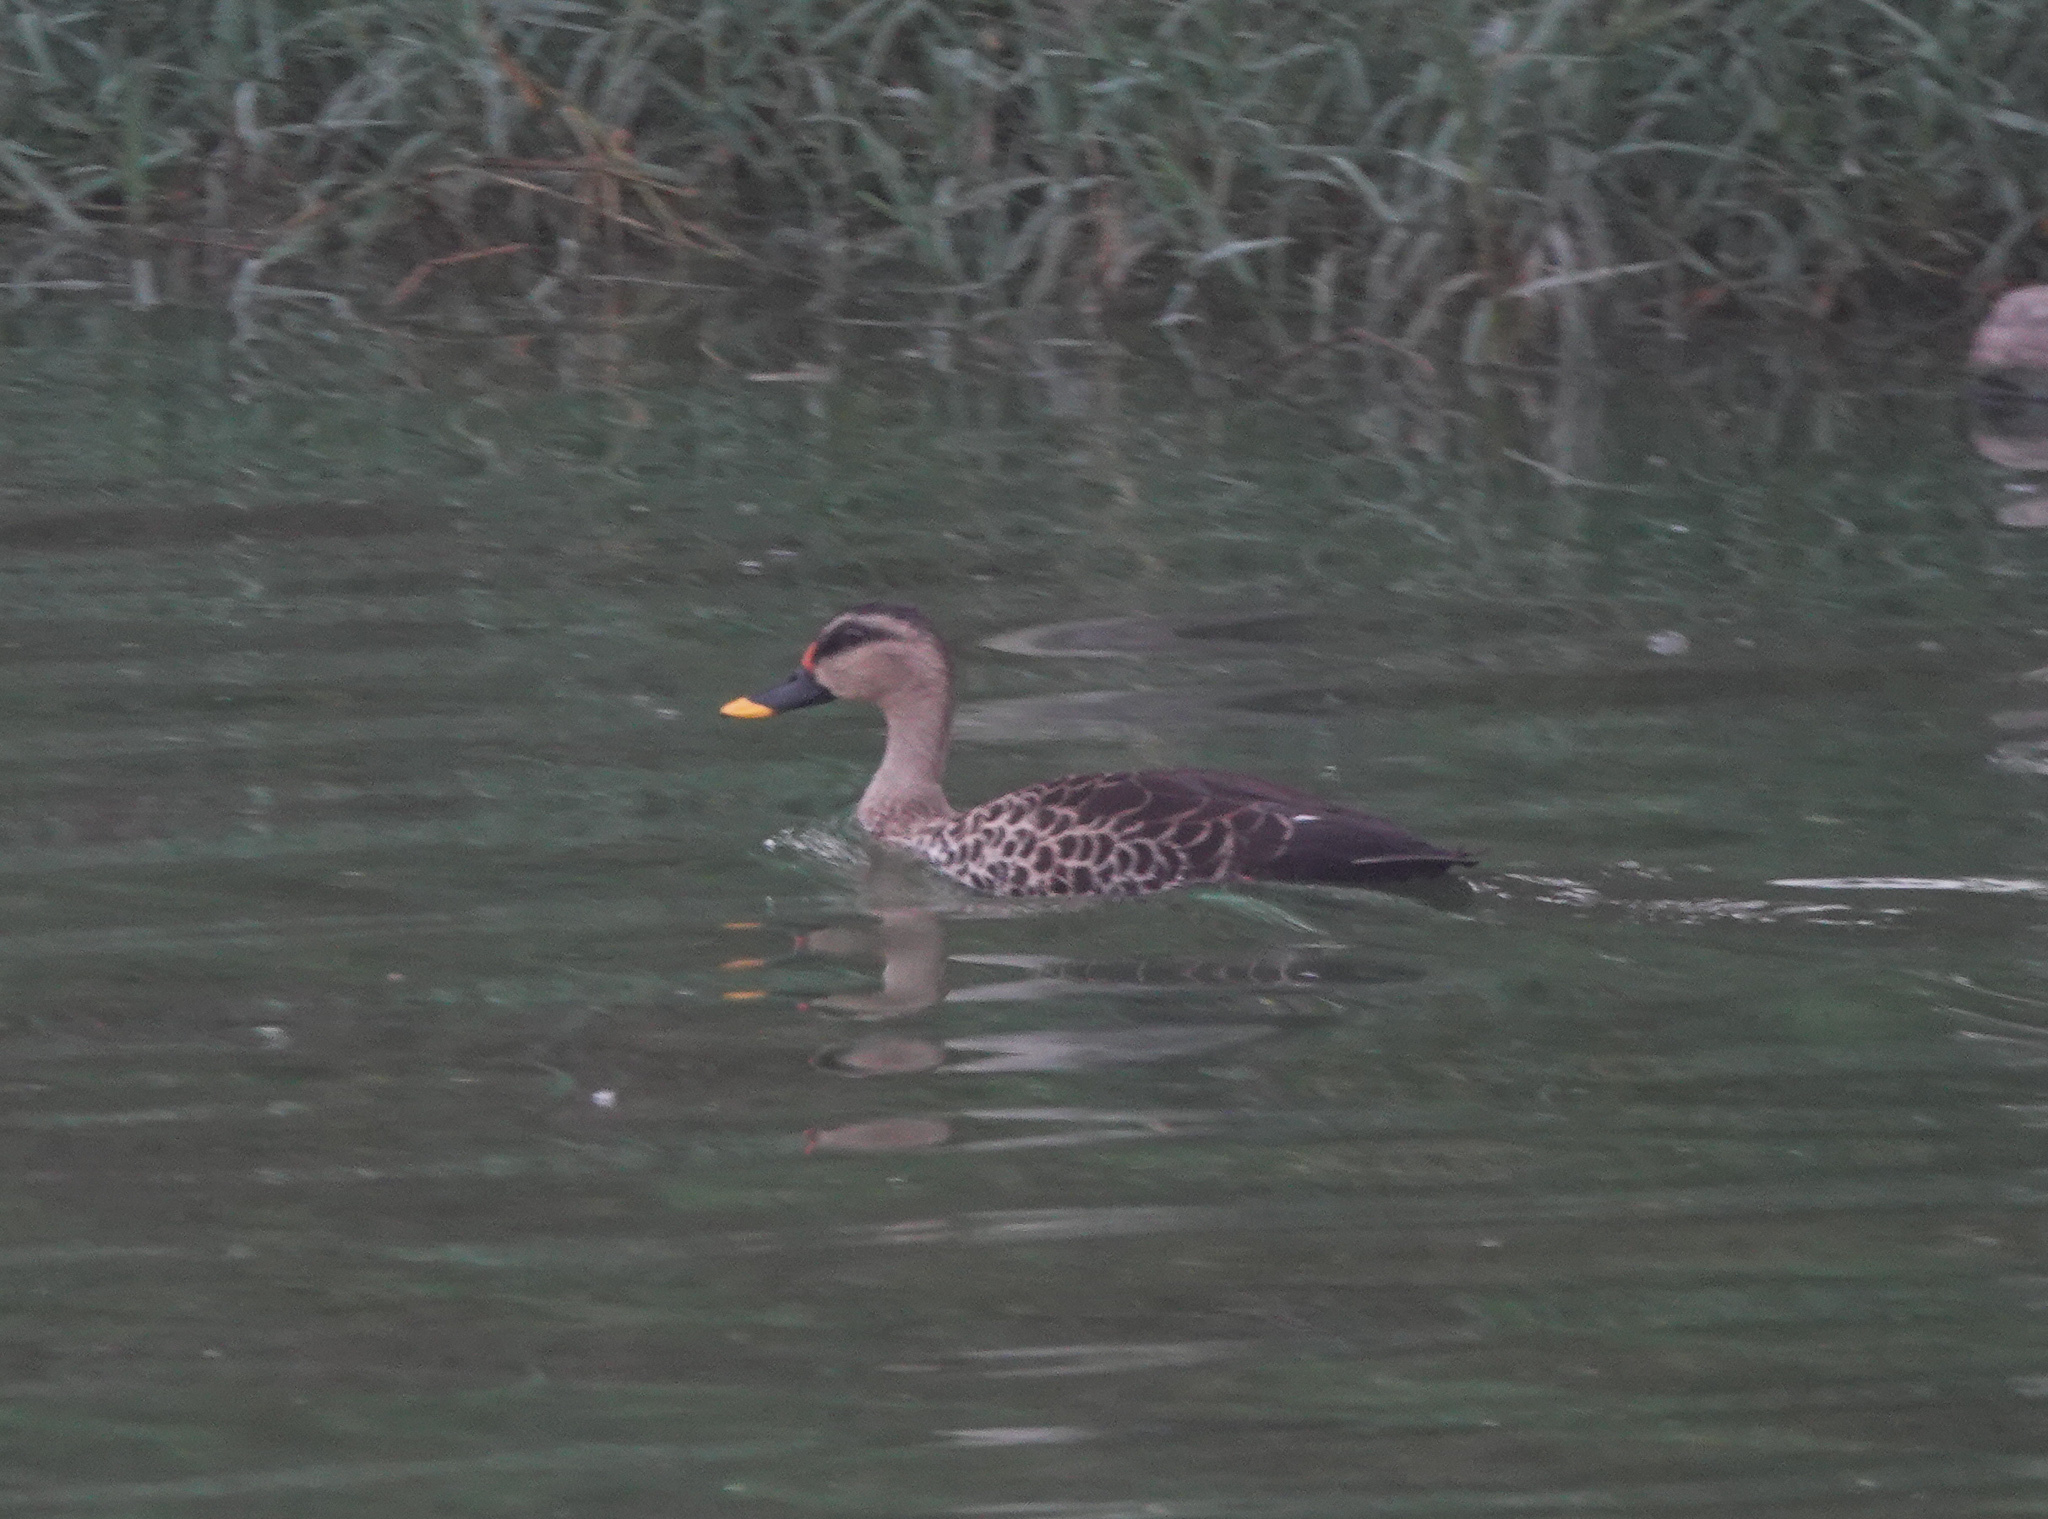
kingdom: Animalia
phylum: Chordata
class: Aves
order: Anseriformes
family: Anatidae
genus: Anas
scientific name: Anas poecilorhyncha
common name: Indian spot-billed duck
